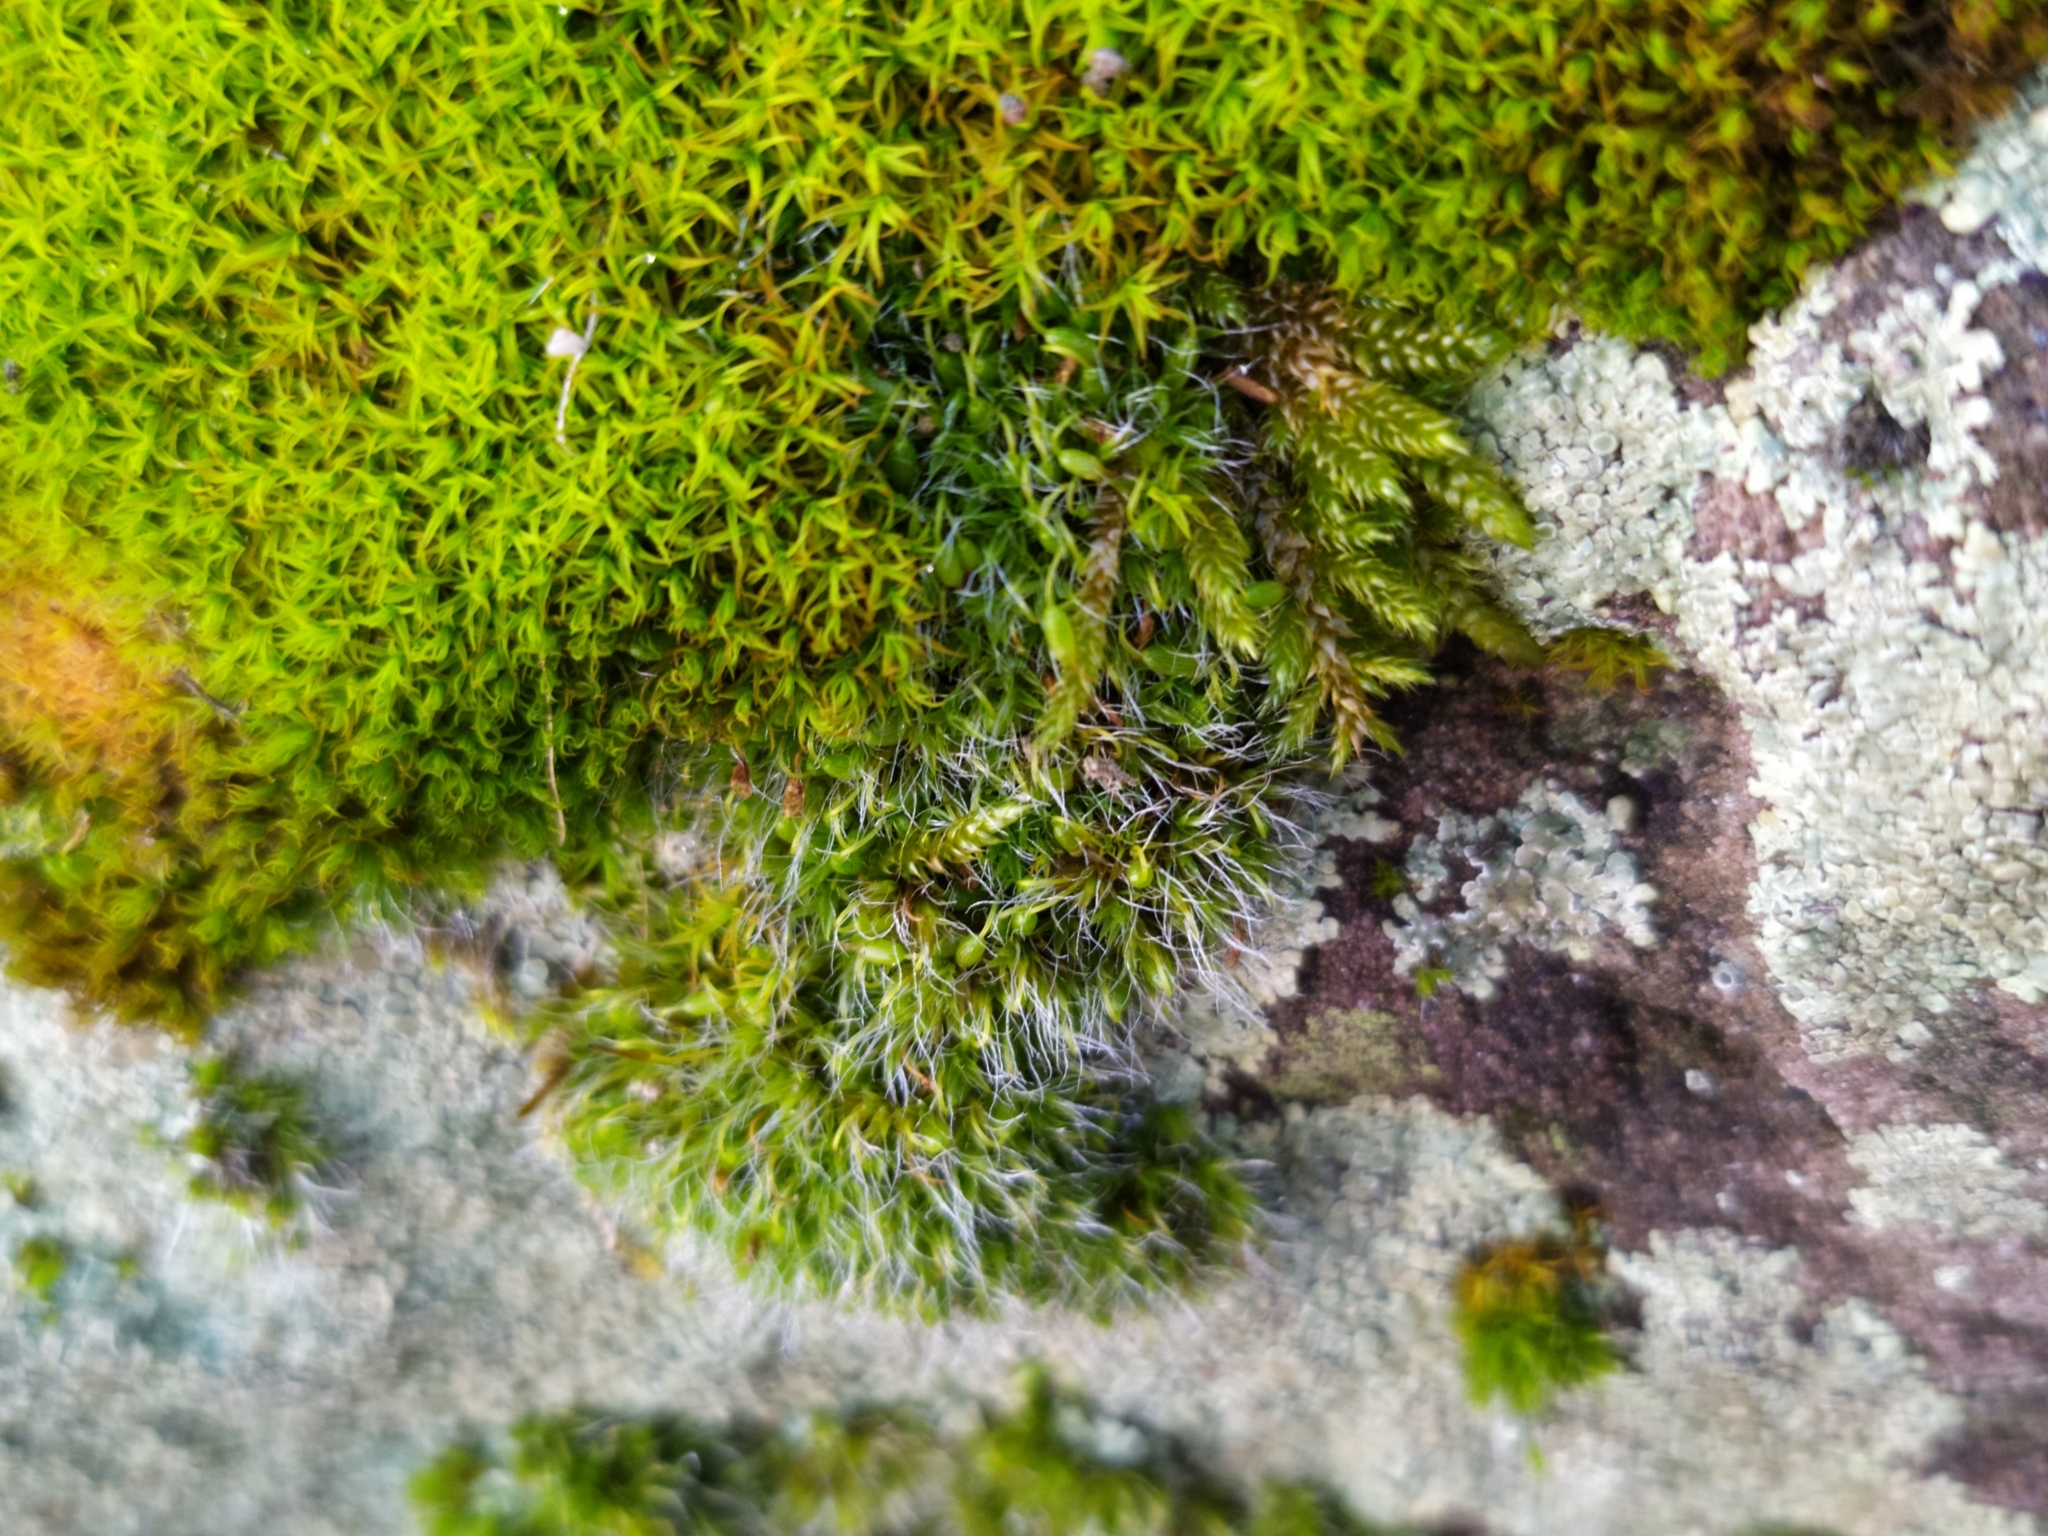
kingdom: Plantae
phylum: Bryophyta
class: Bryopsida
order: Grimmiales
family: Grimmiaceae
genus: Grimmia
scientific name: Grimmia pulvinata
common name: Grey-cushioned grimmia
